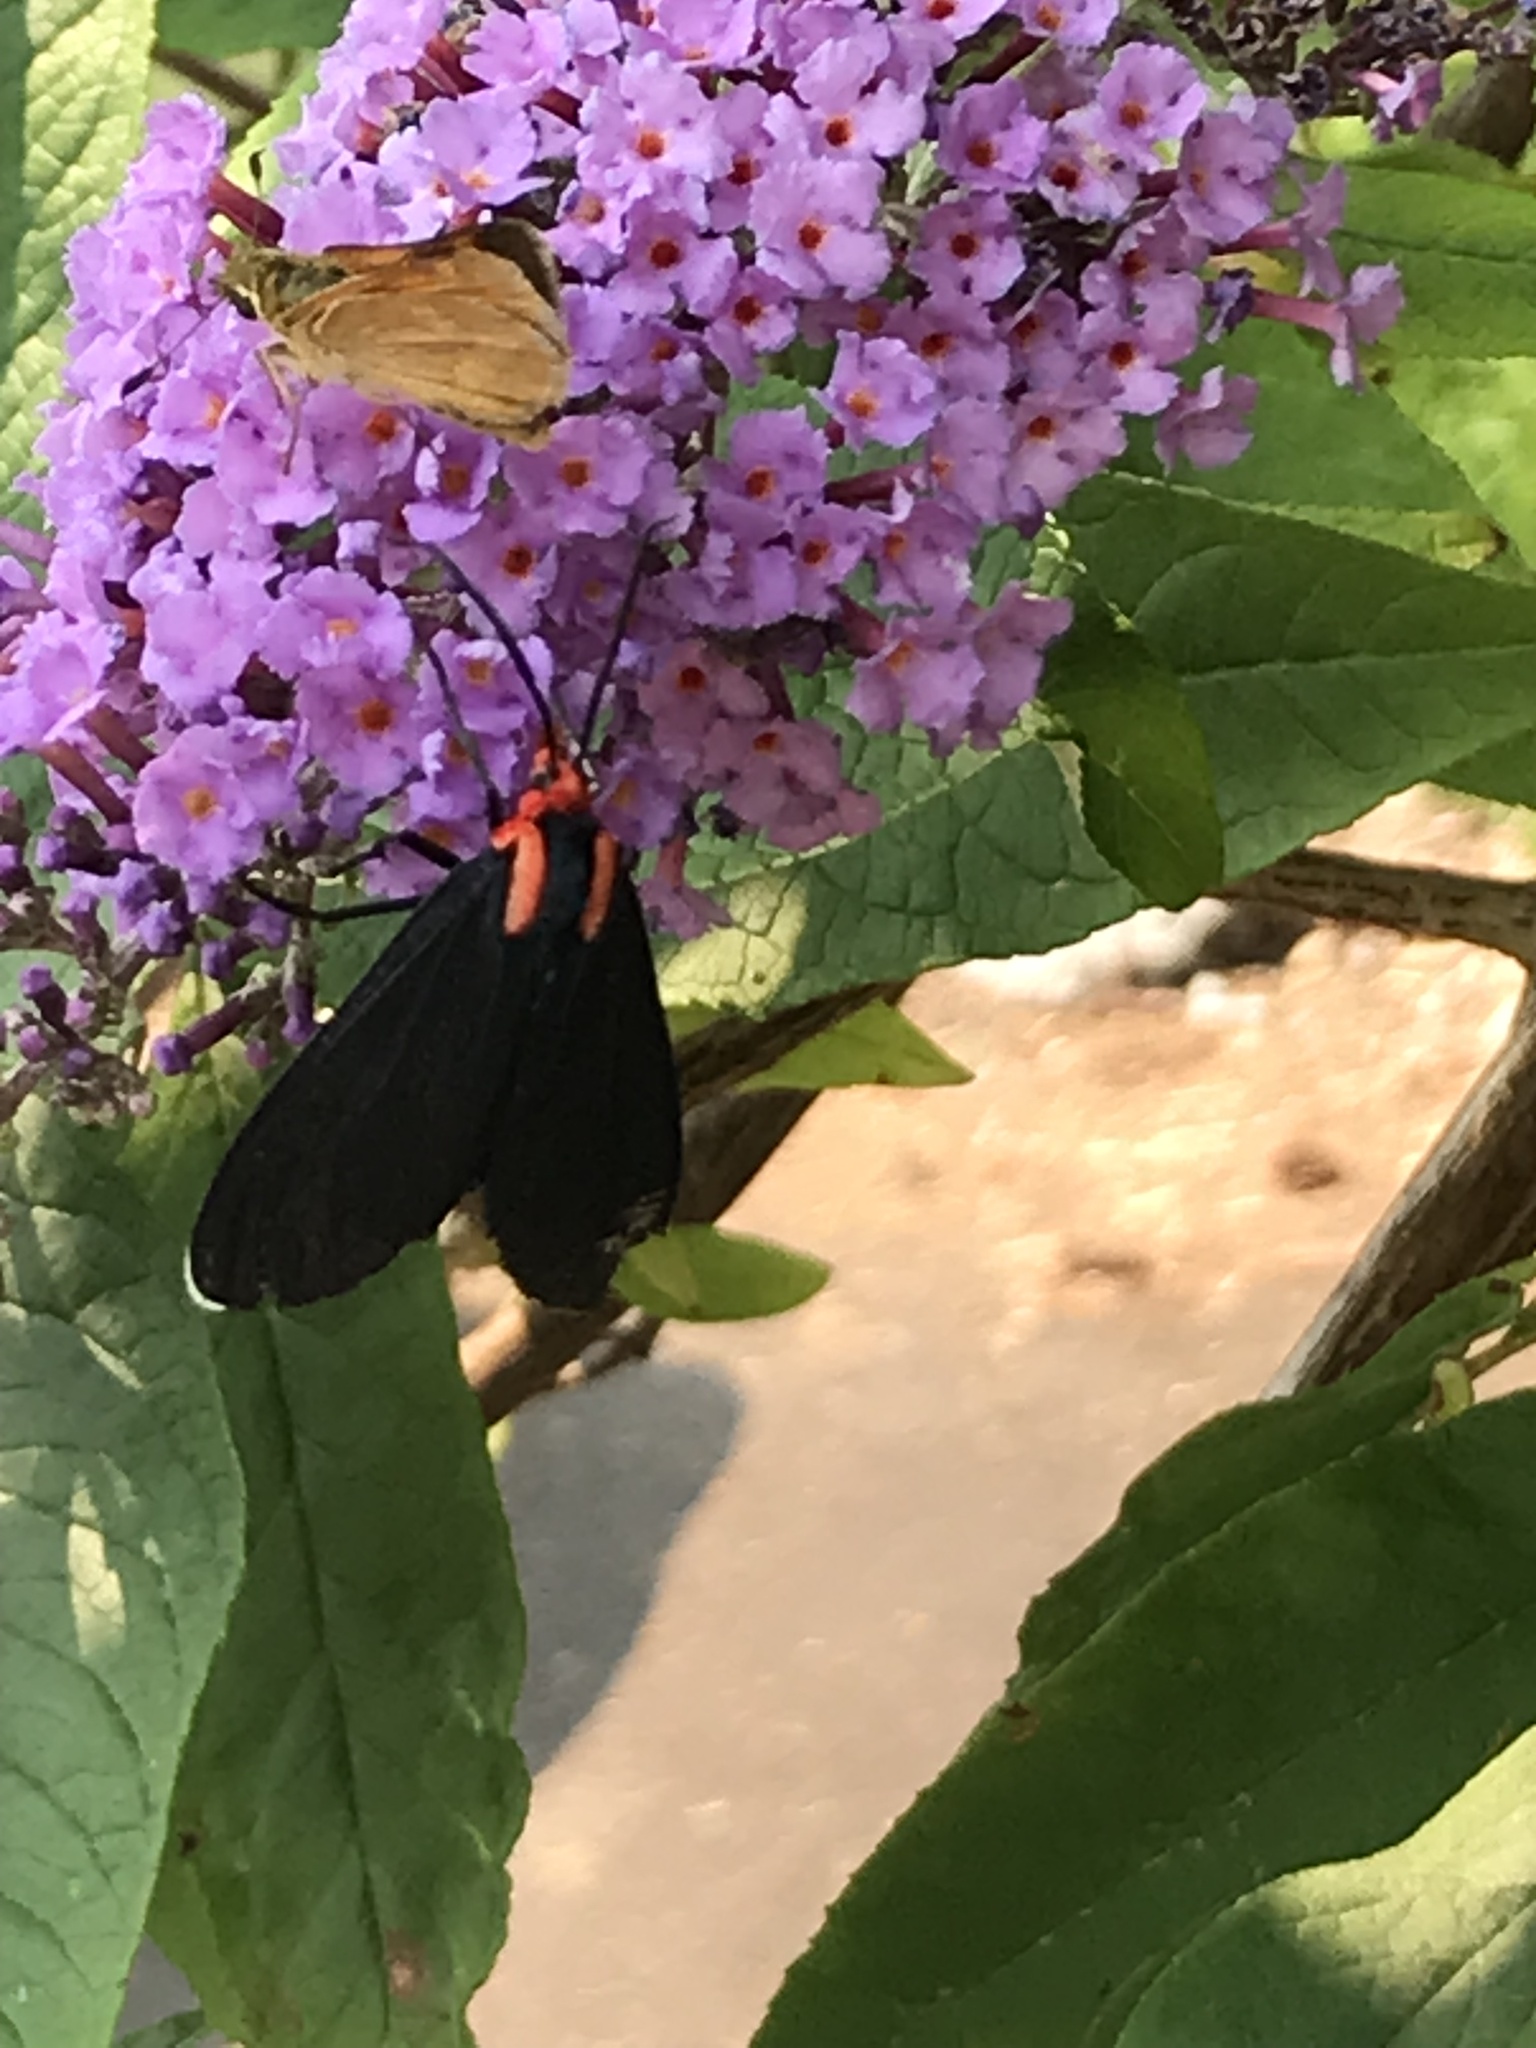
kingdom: Animalia
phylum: Arthropoda
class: Insecta
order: Lepidoptera
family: Erebidae
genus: Ctenucha
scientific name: Ctenucha rubroscapus
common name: Red-shouldered ctenucha
